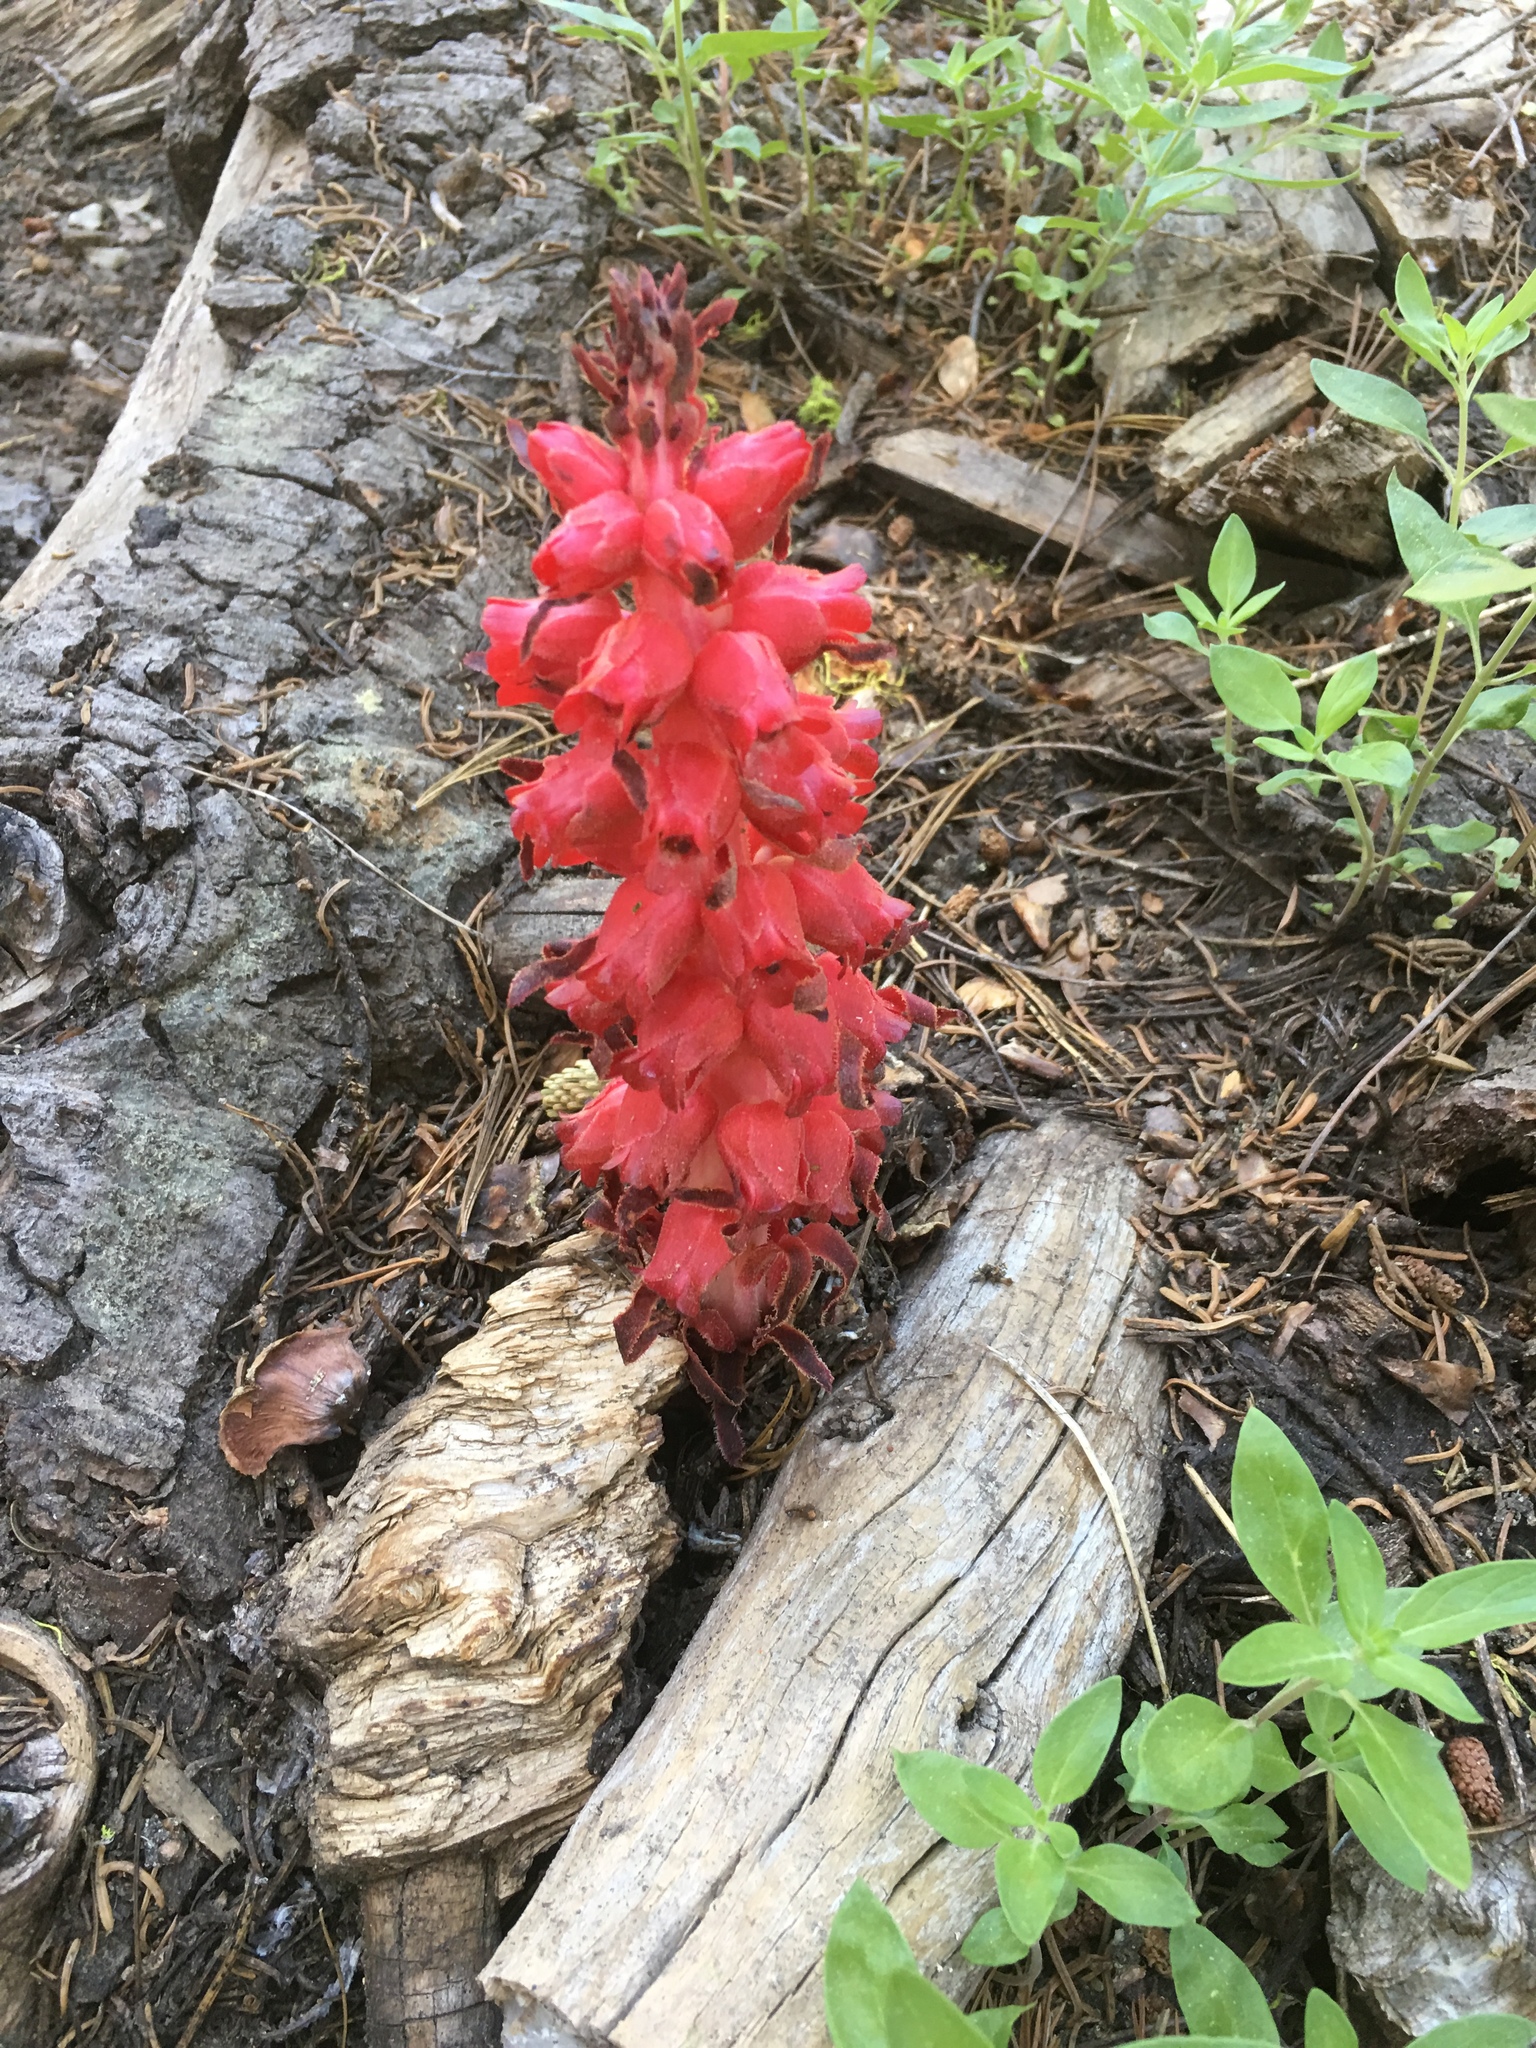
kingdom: Plantae
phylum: Tracheophyta
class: Magnoliopsida
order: Ericales
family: Ericaceae
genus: Sarcodes
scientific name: Sarcodes sanguinea
